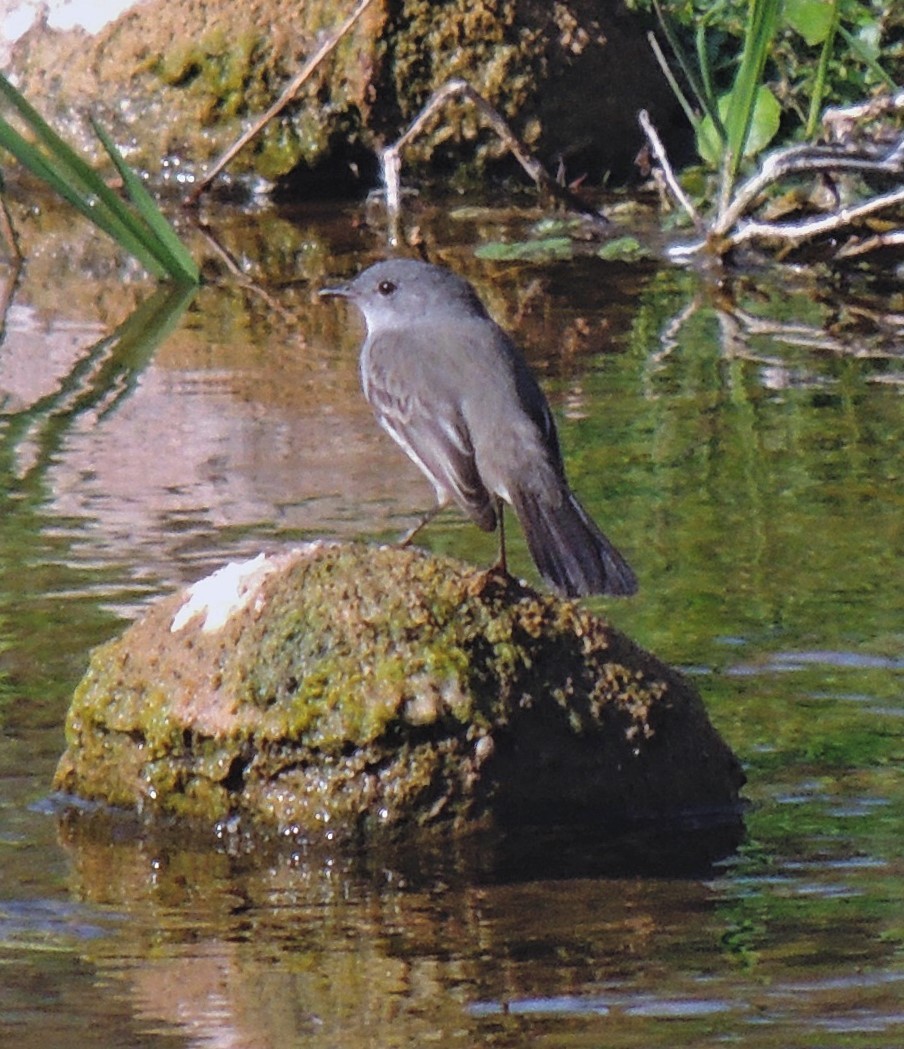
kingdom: Animalia
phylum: Chordata
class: Aves
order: Passeriformes
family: Tyrannidae
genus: Serpophaga
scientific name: Serpophaga nigricans
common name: Sooty tyrannulet
